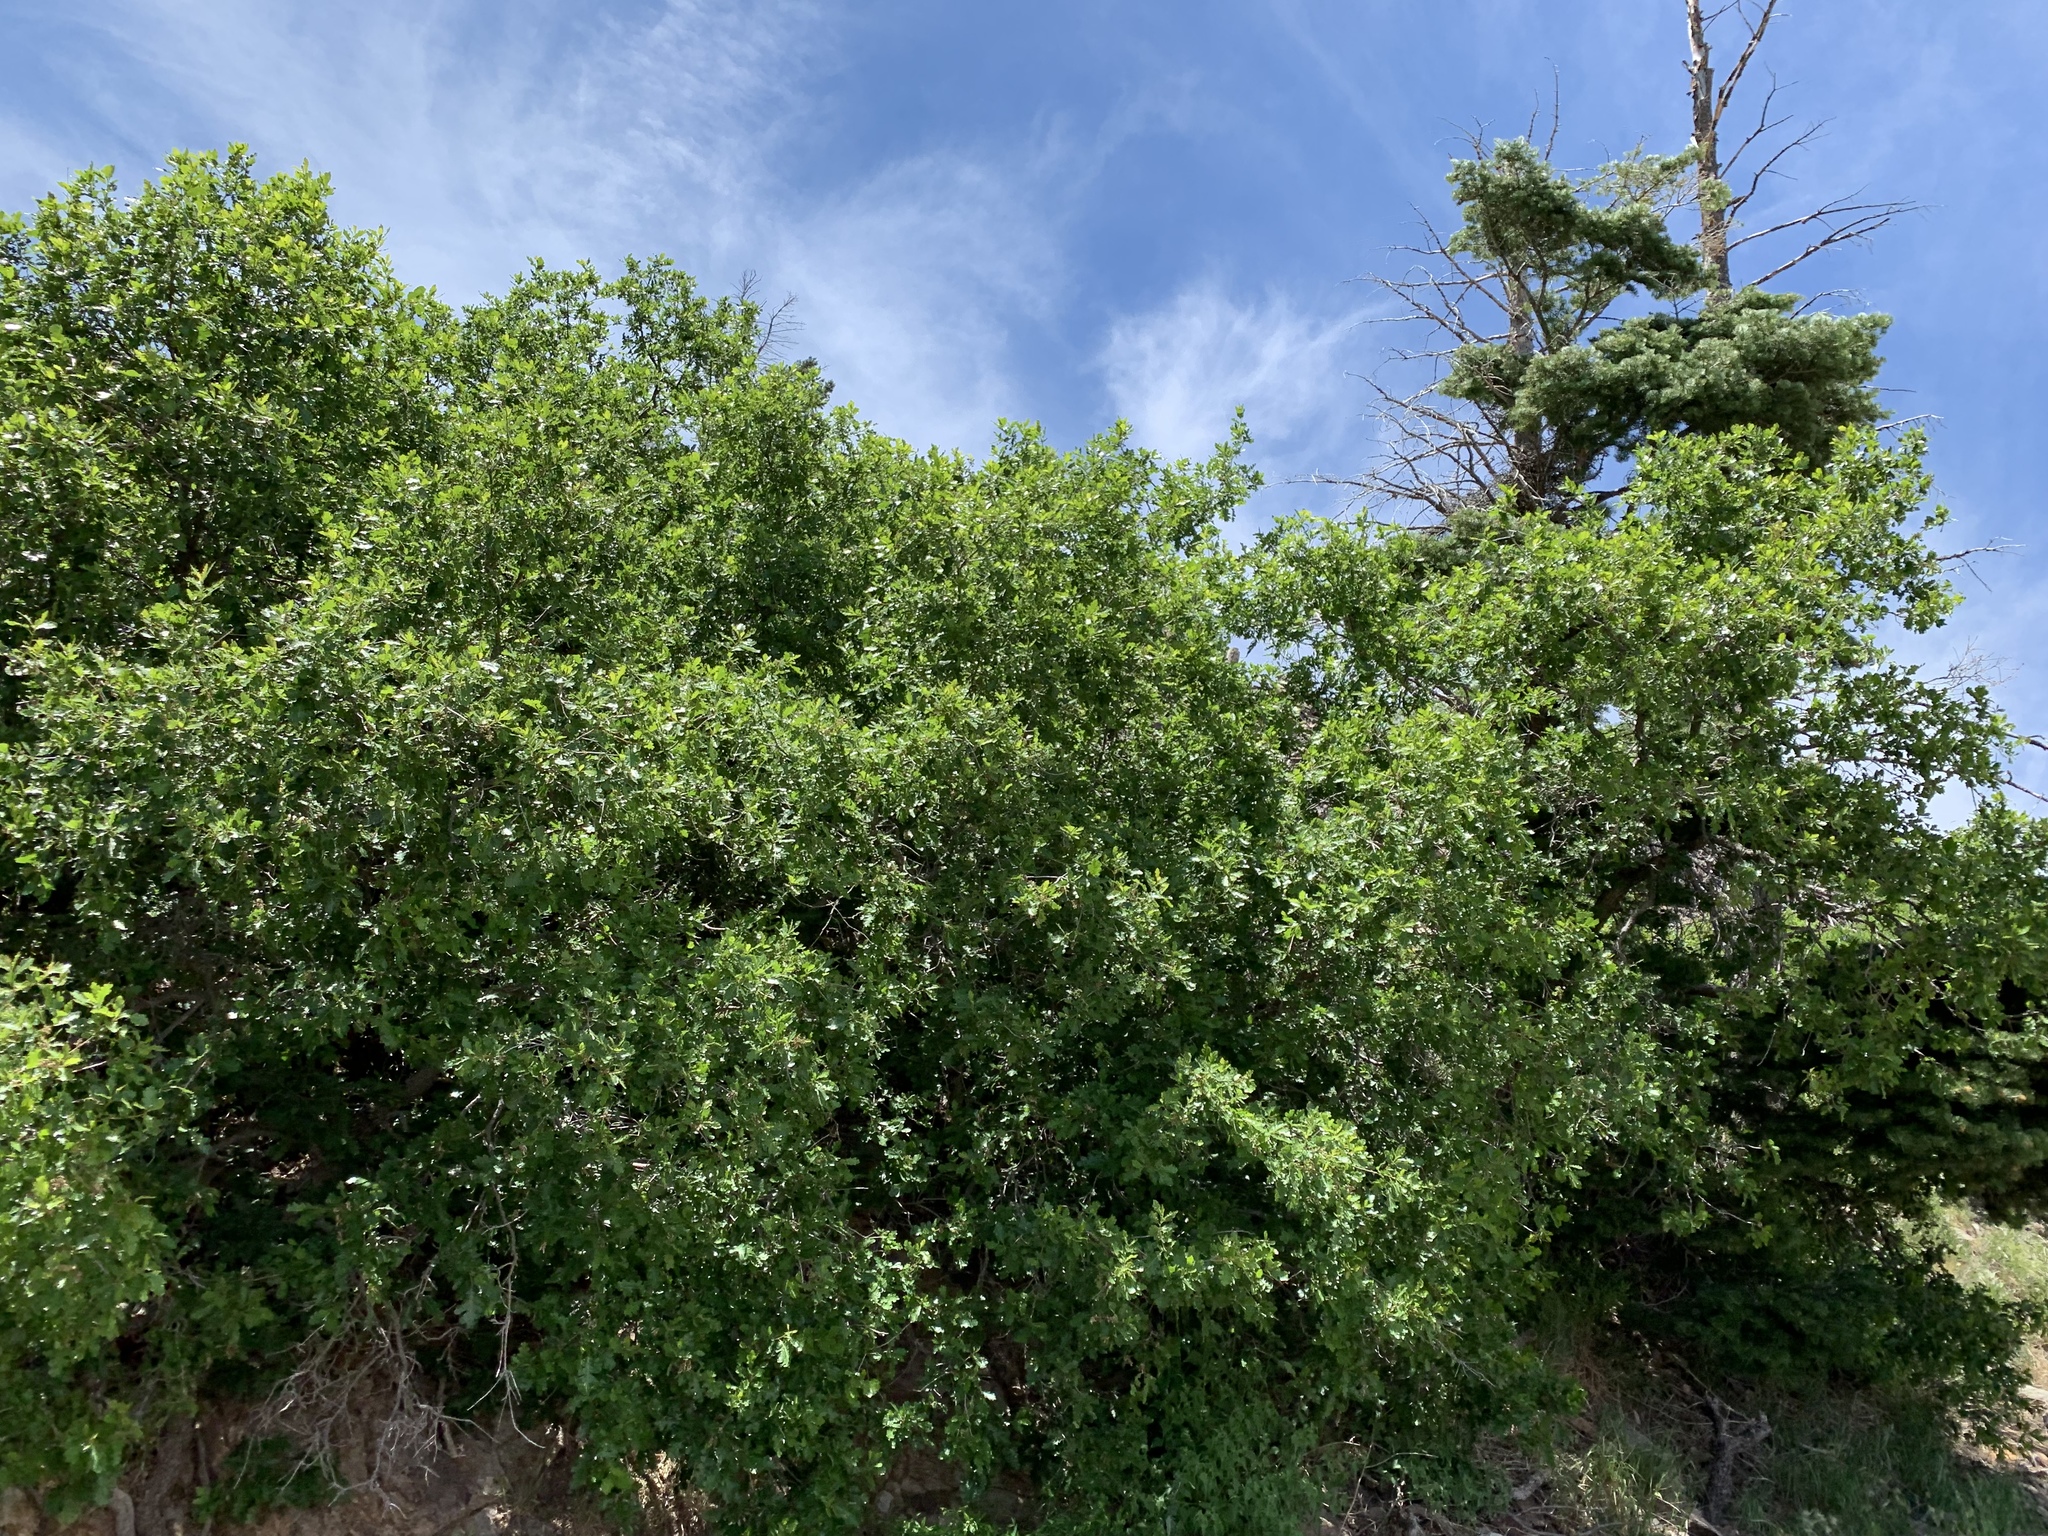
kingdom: Plantae
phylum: Tracheophyta
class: Magnoliopsida
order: Fagales
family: Fagaceae
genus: Quercus
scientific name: Quercus gambelii
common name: Gambel oak
